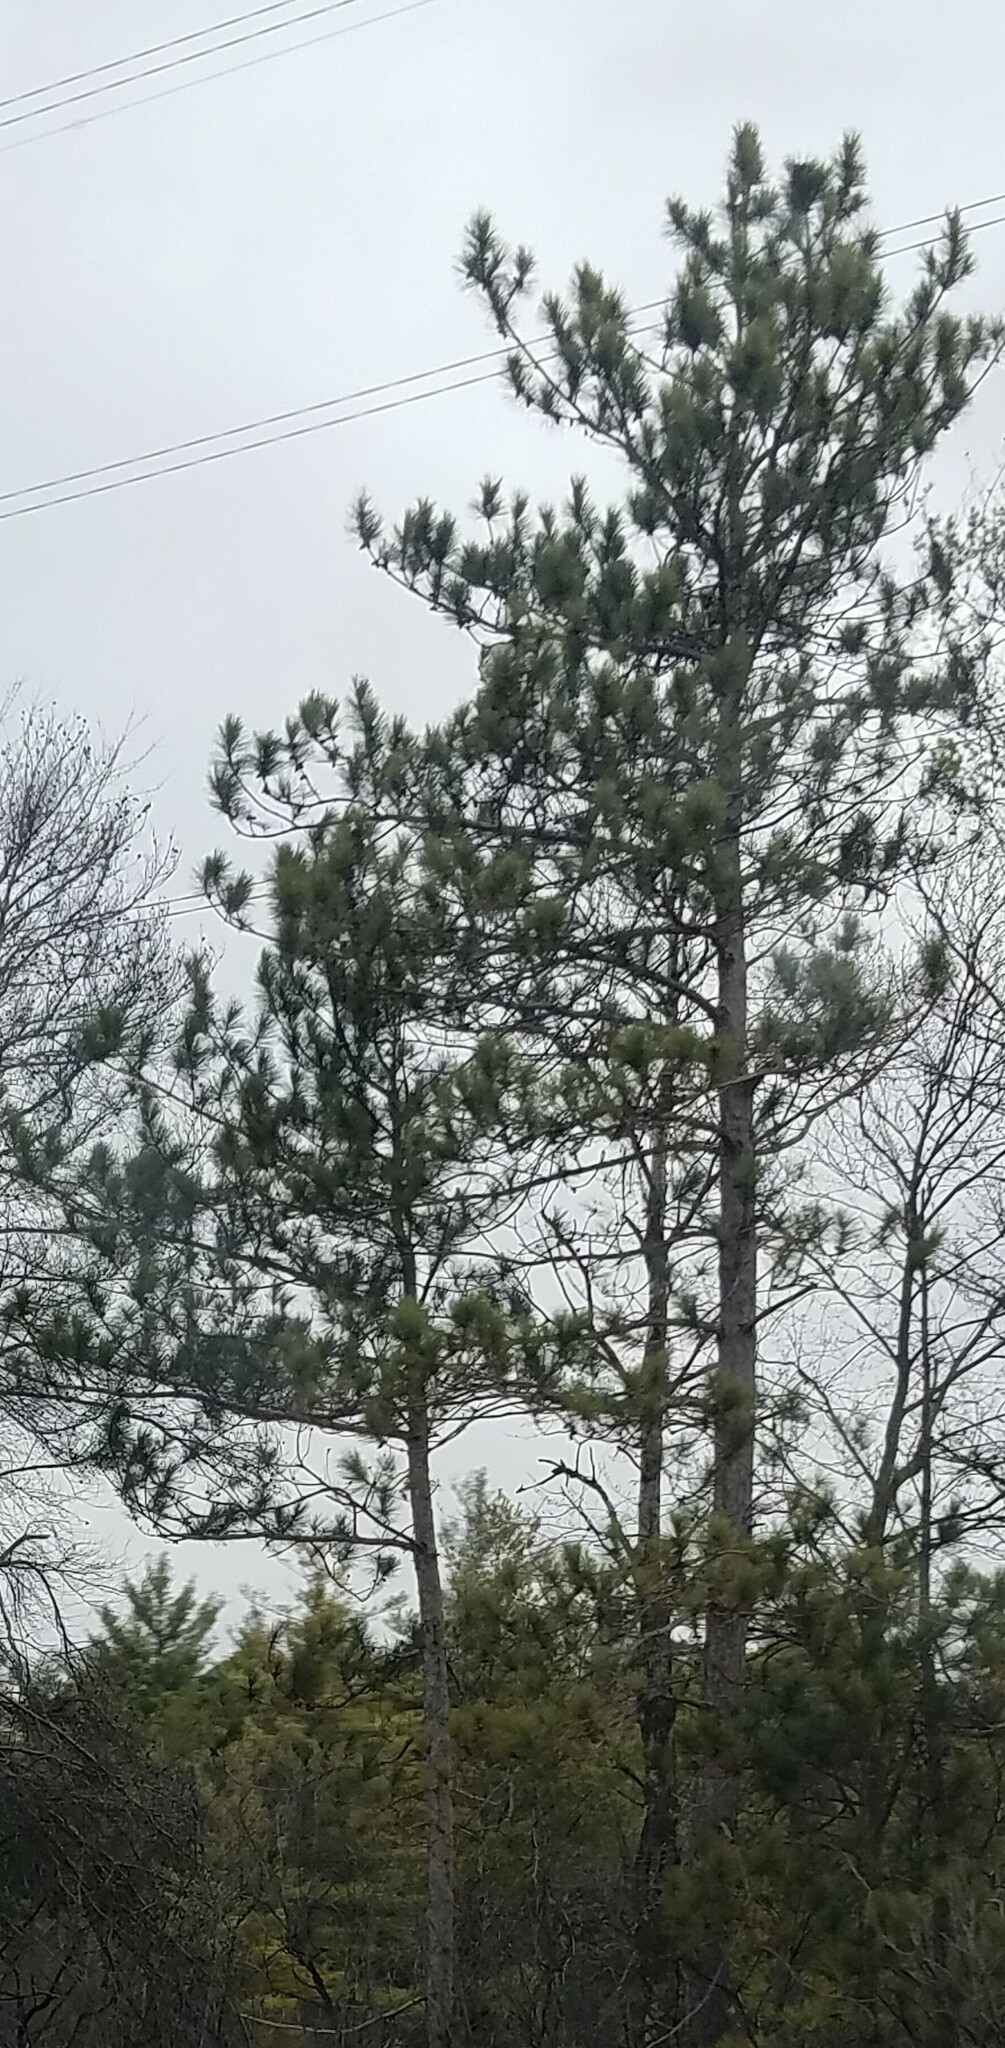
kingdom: Plantae
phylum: Tracheophyta
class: Pinopsida
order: Pinales
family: Pinaceae
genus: Pinus
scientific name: Pinus resinosa
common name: Norway pine
